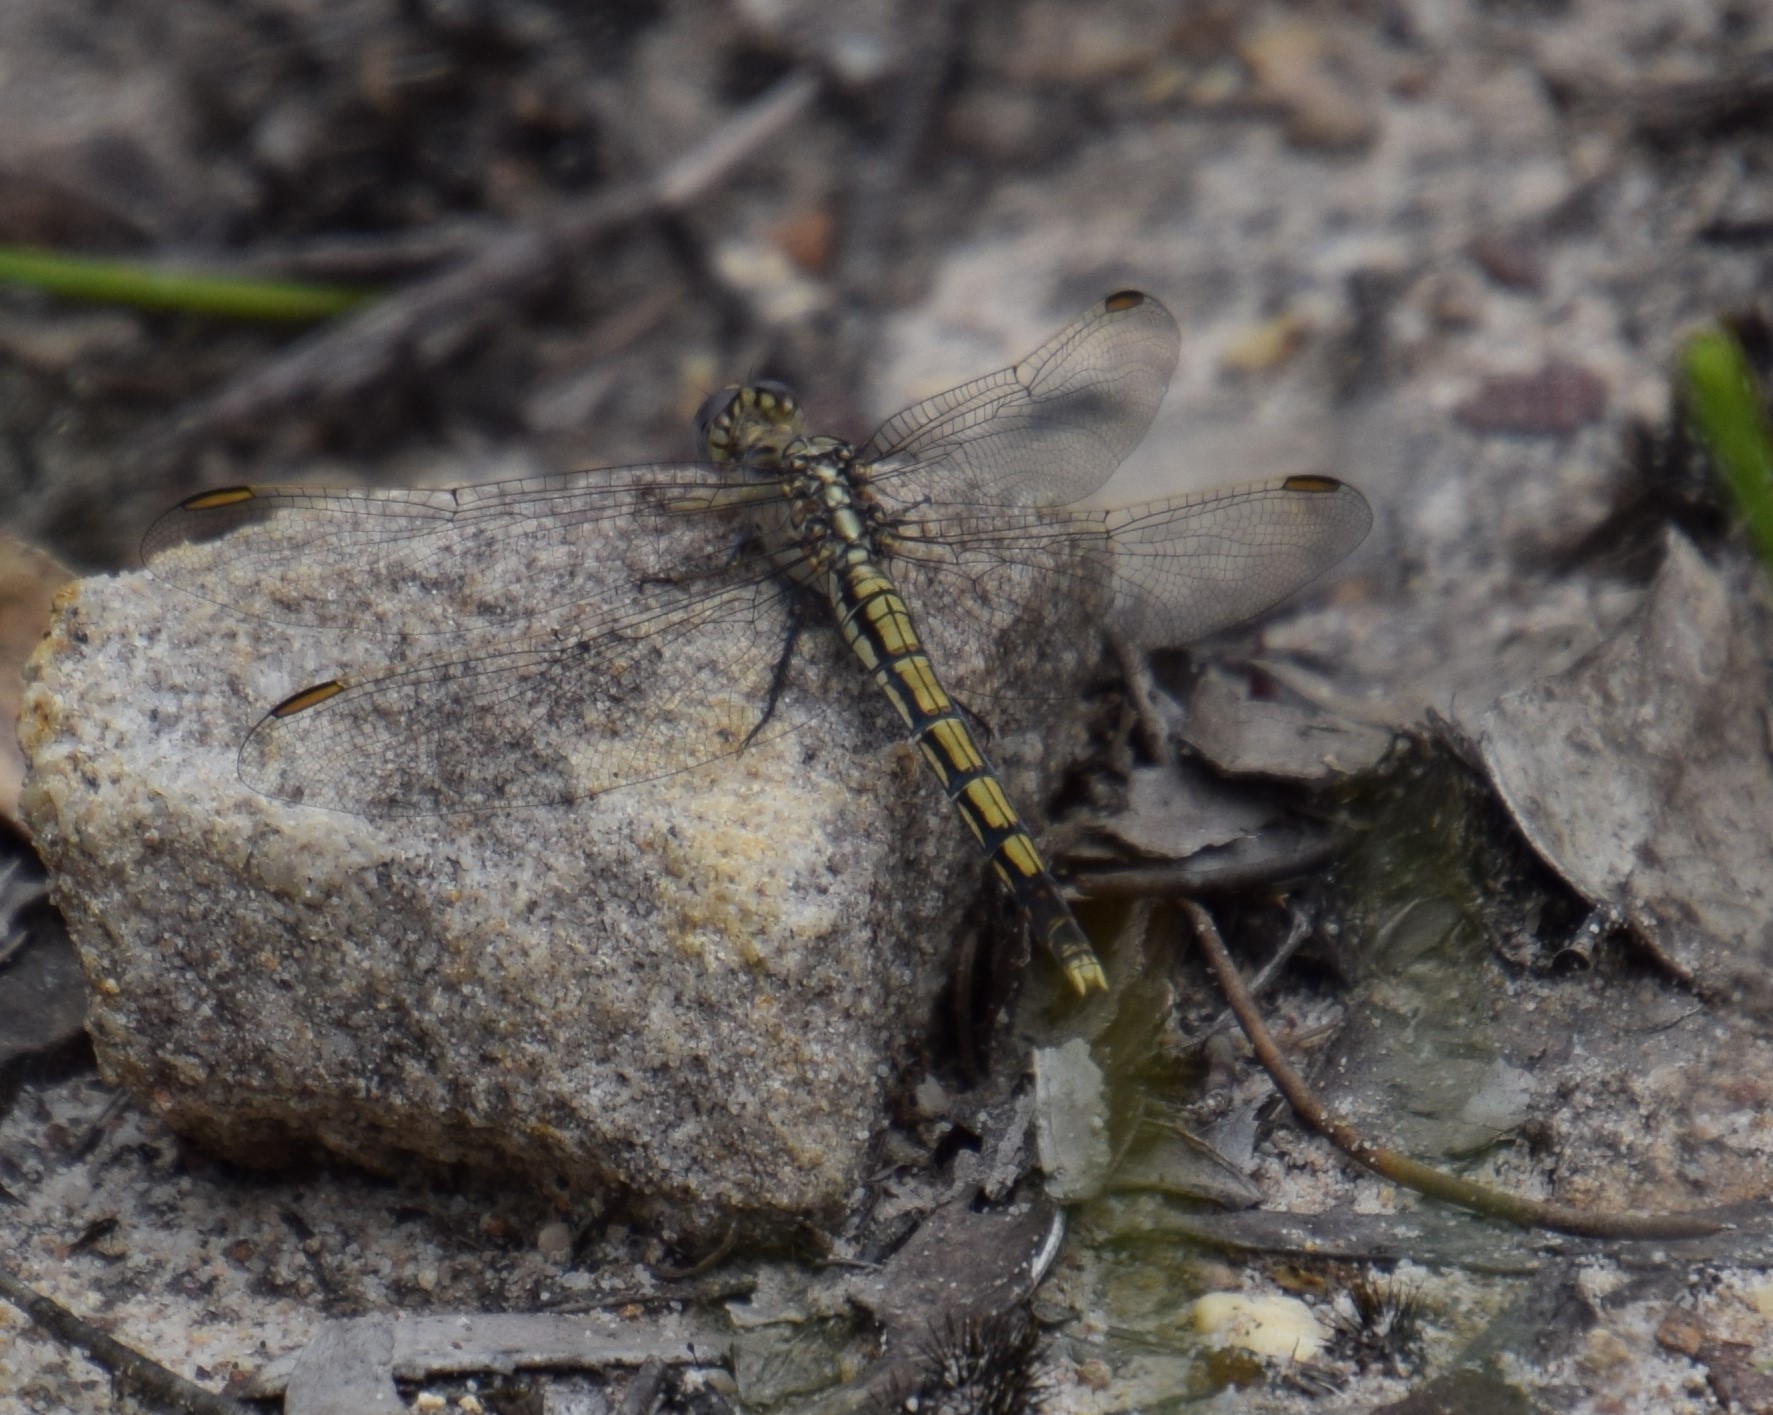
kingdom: Animalia
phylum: Arthropoda
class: Insecta
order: Odonata
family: Libellulidae
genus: Orthetrum
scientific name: Orthetrum caledonicum
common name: Blue skimmer
